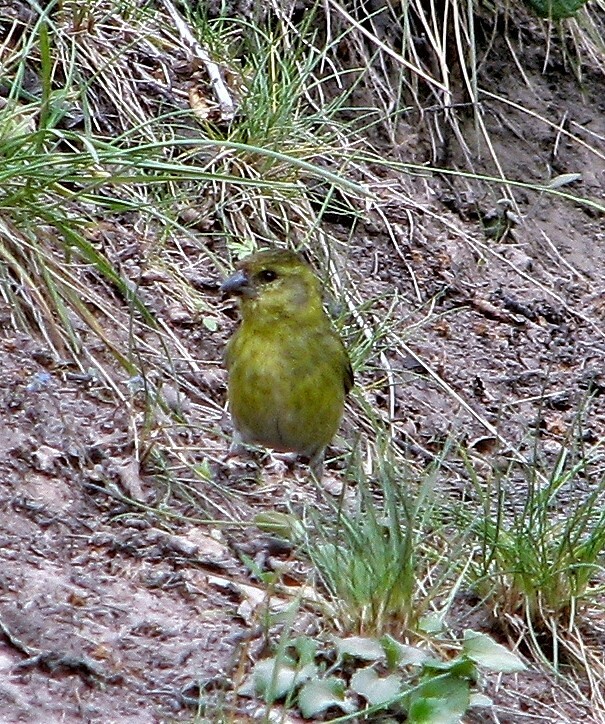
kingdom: Animalia
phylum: Chordata
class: Aves
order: Passeriformes
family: Fringillidae
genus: Spinus
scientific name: Spinus barbatus
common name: Black-chinned siskin
